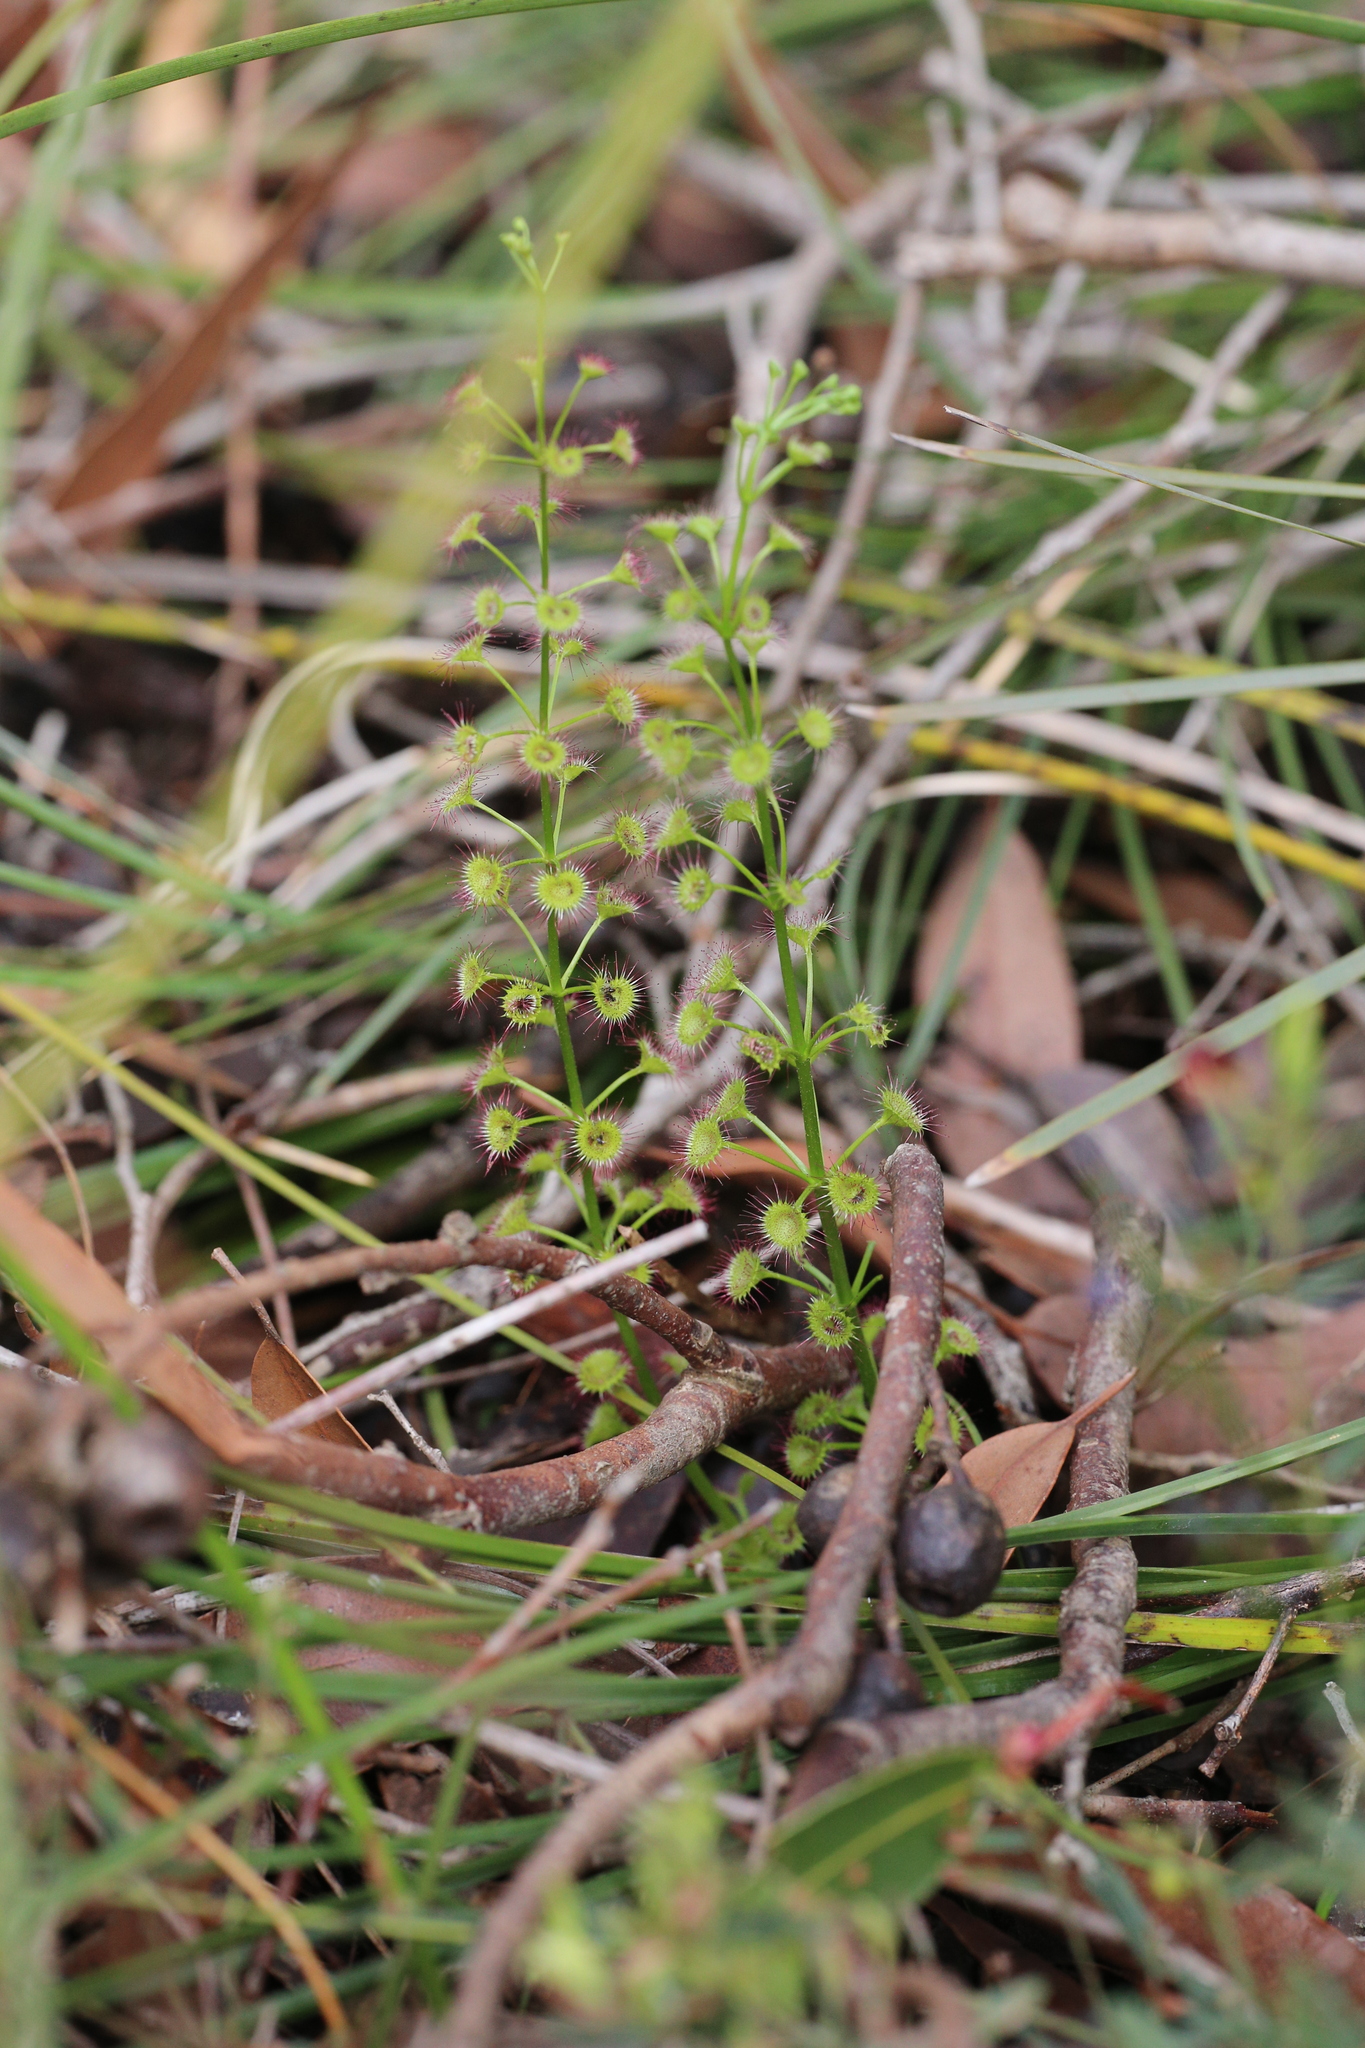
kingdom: Plantae
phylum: Tracheophyta
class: Magnoliopsida
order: Caryophyllales
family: Droseraceae
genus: Drosera
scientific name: Drosera stolonifera
